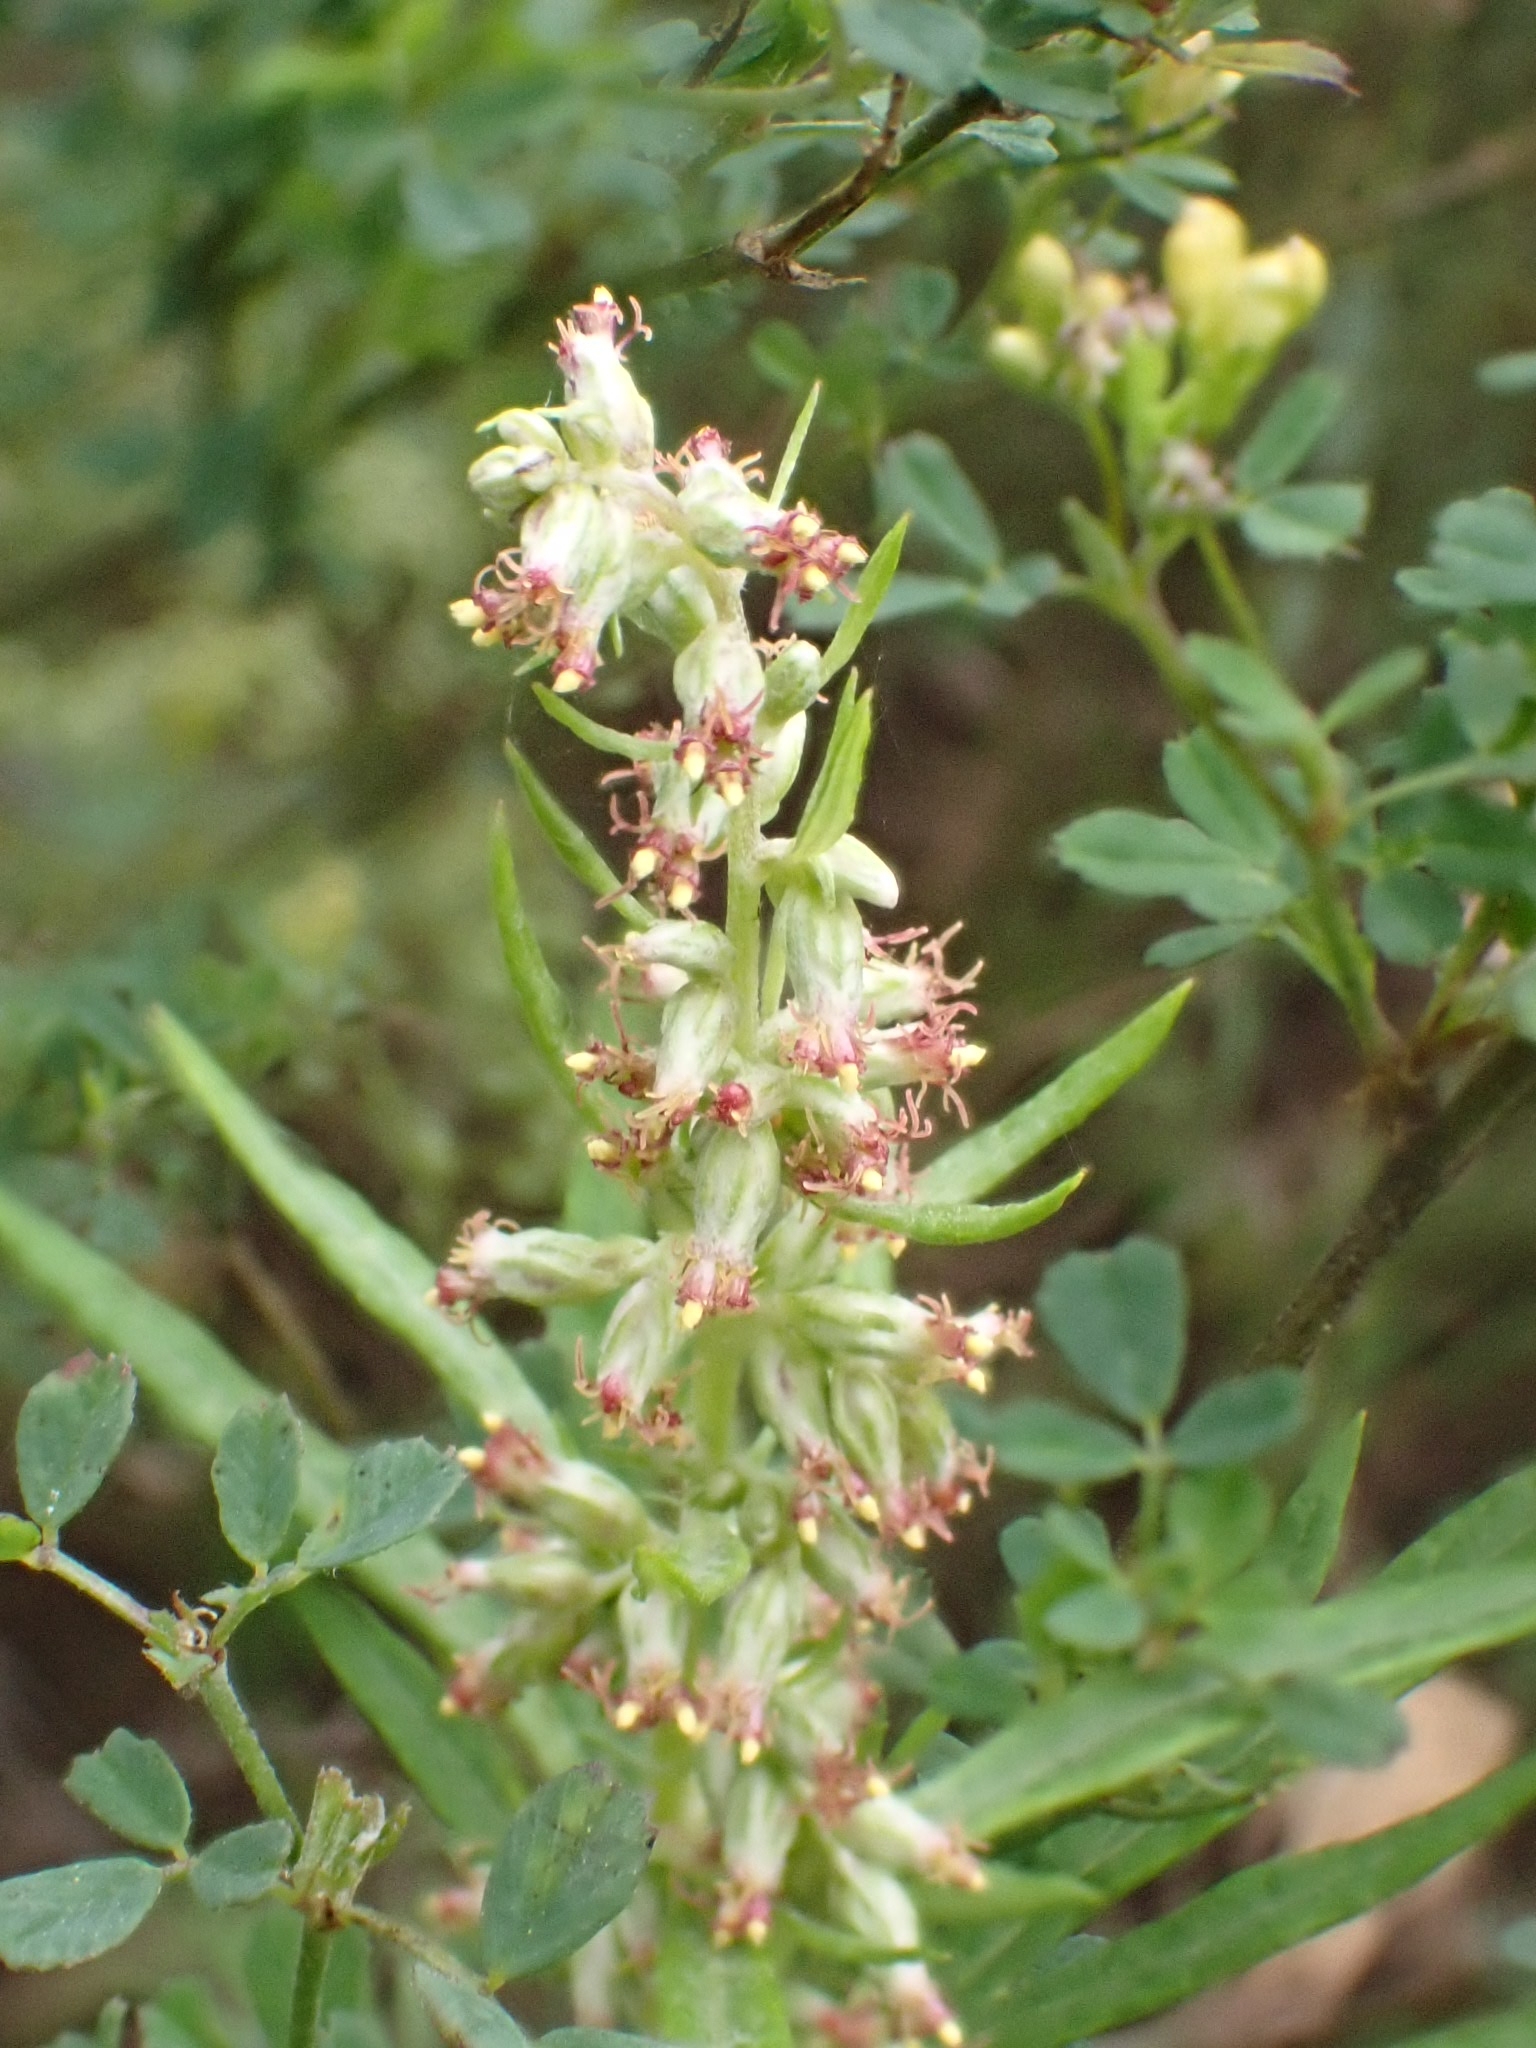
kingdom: Plantae
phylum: Tracheophyta
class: Magnoliopsida
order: Asterales
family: Asteraceae
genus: Artemisia
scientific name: Artemisia vulgaris
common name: Mugwort
